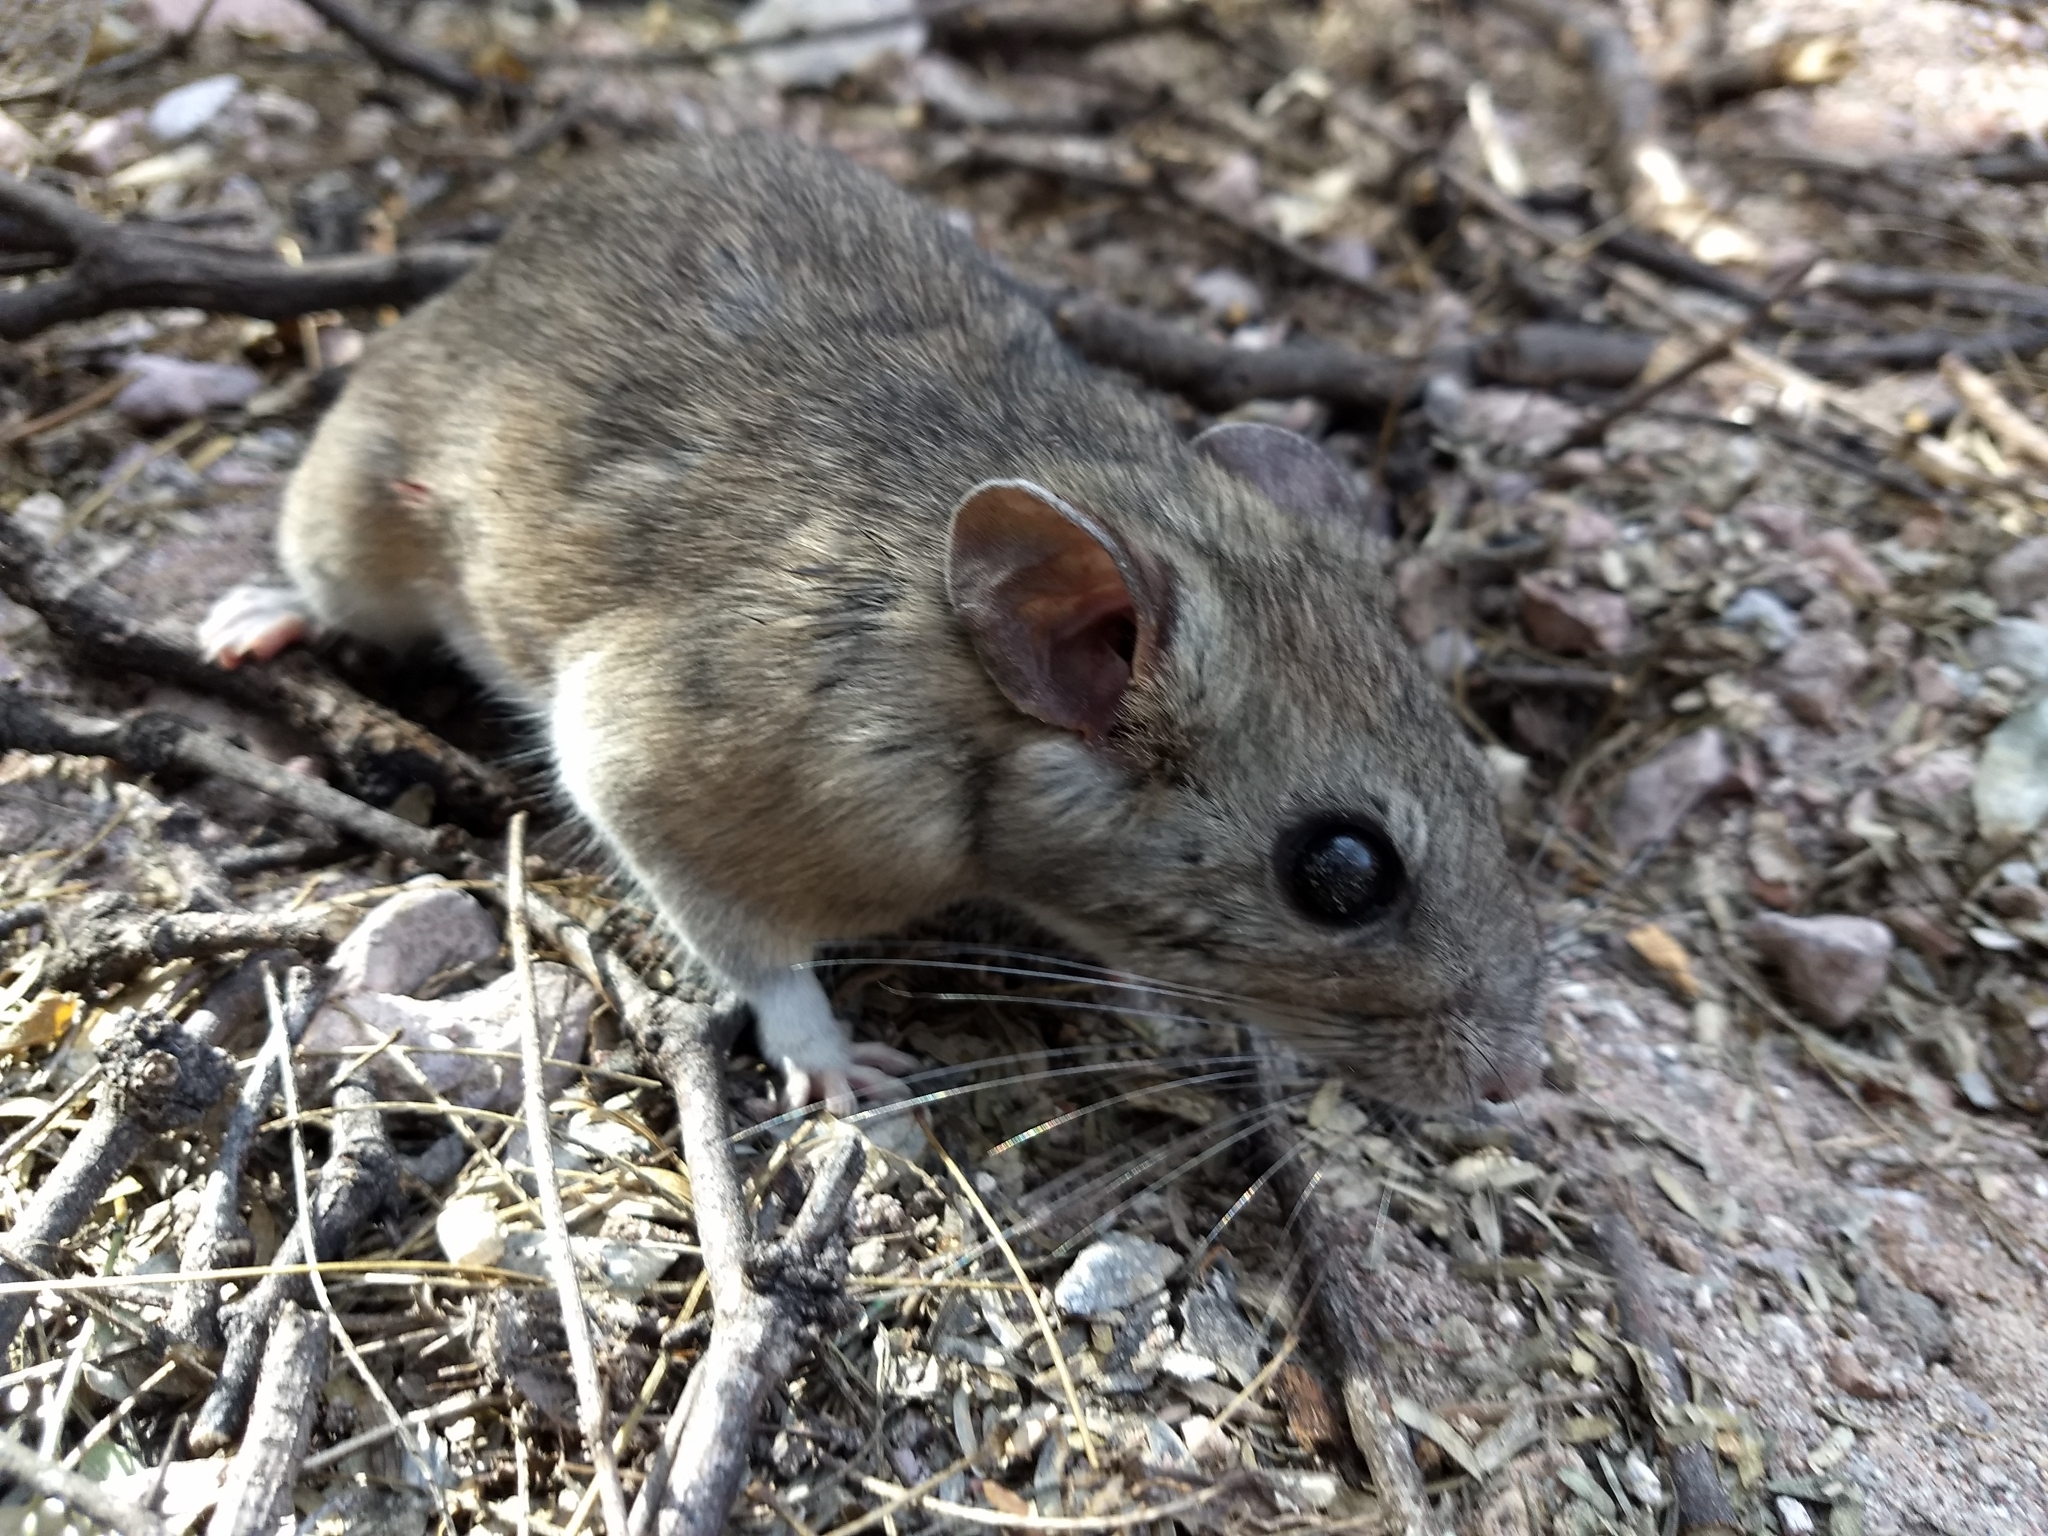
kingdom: Animalia
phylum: Chordata
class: Mammalia
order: Rodentia
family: Cricetidae
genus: Peromyscus
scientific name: Peromyscus maniculatus
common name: Deer mouse
